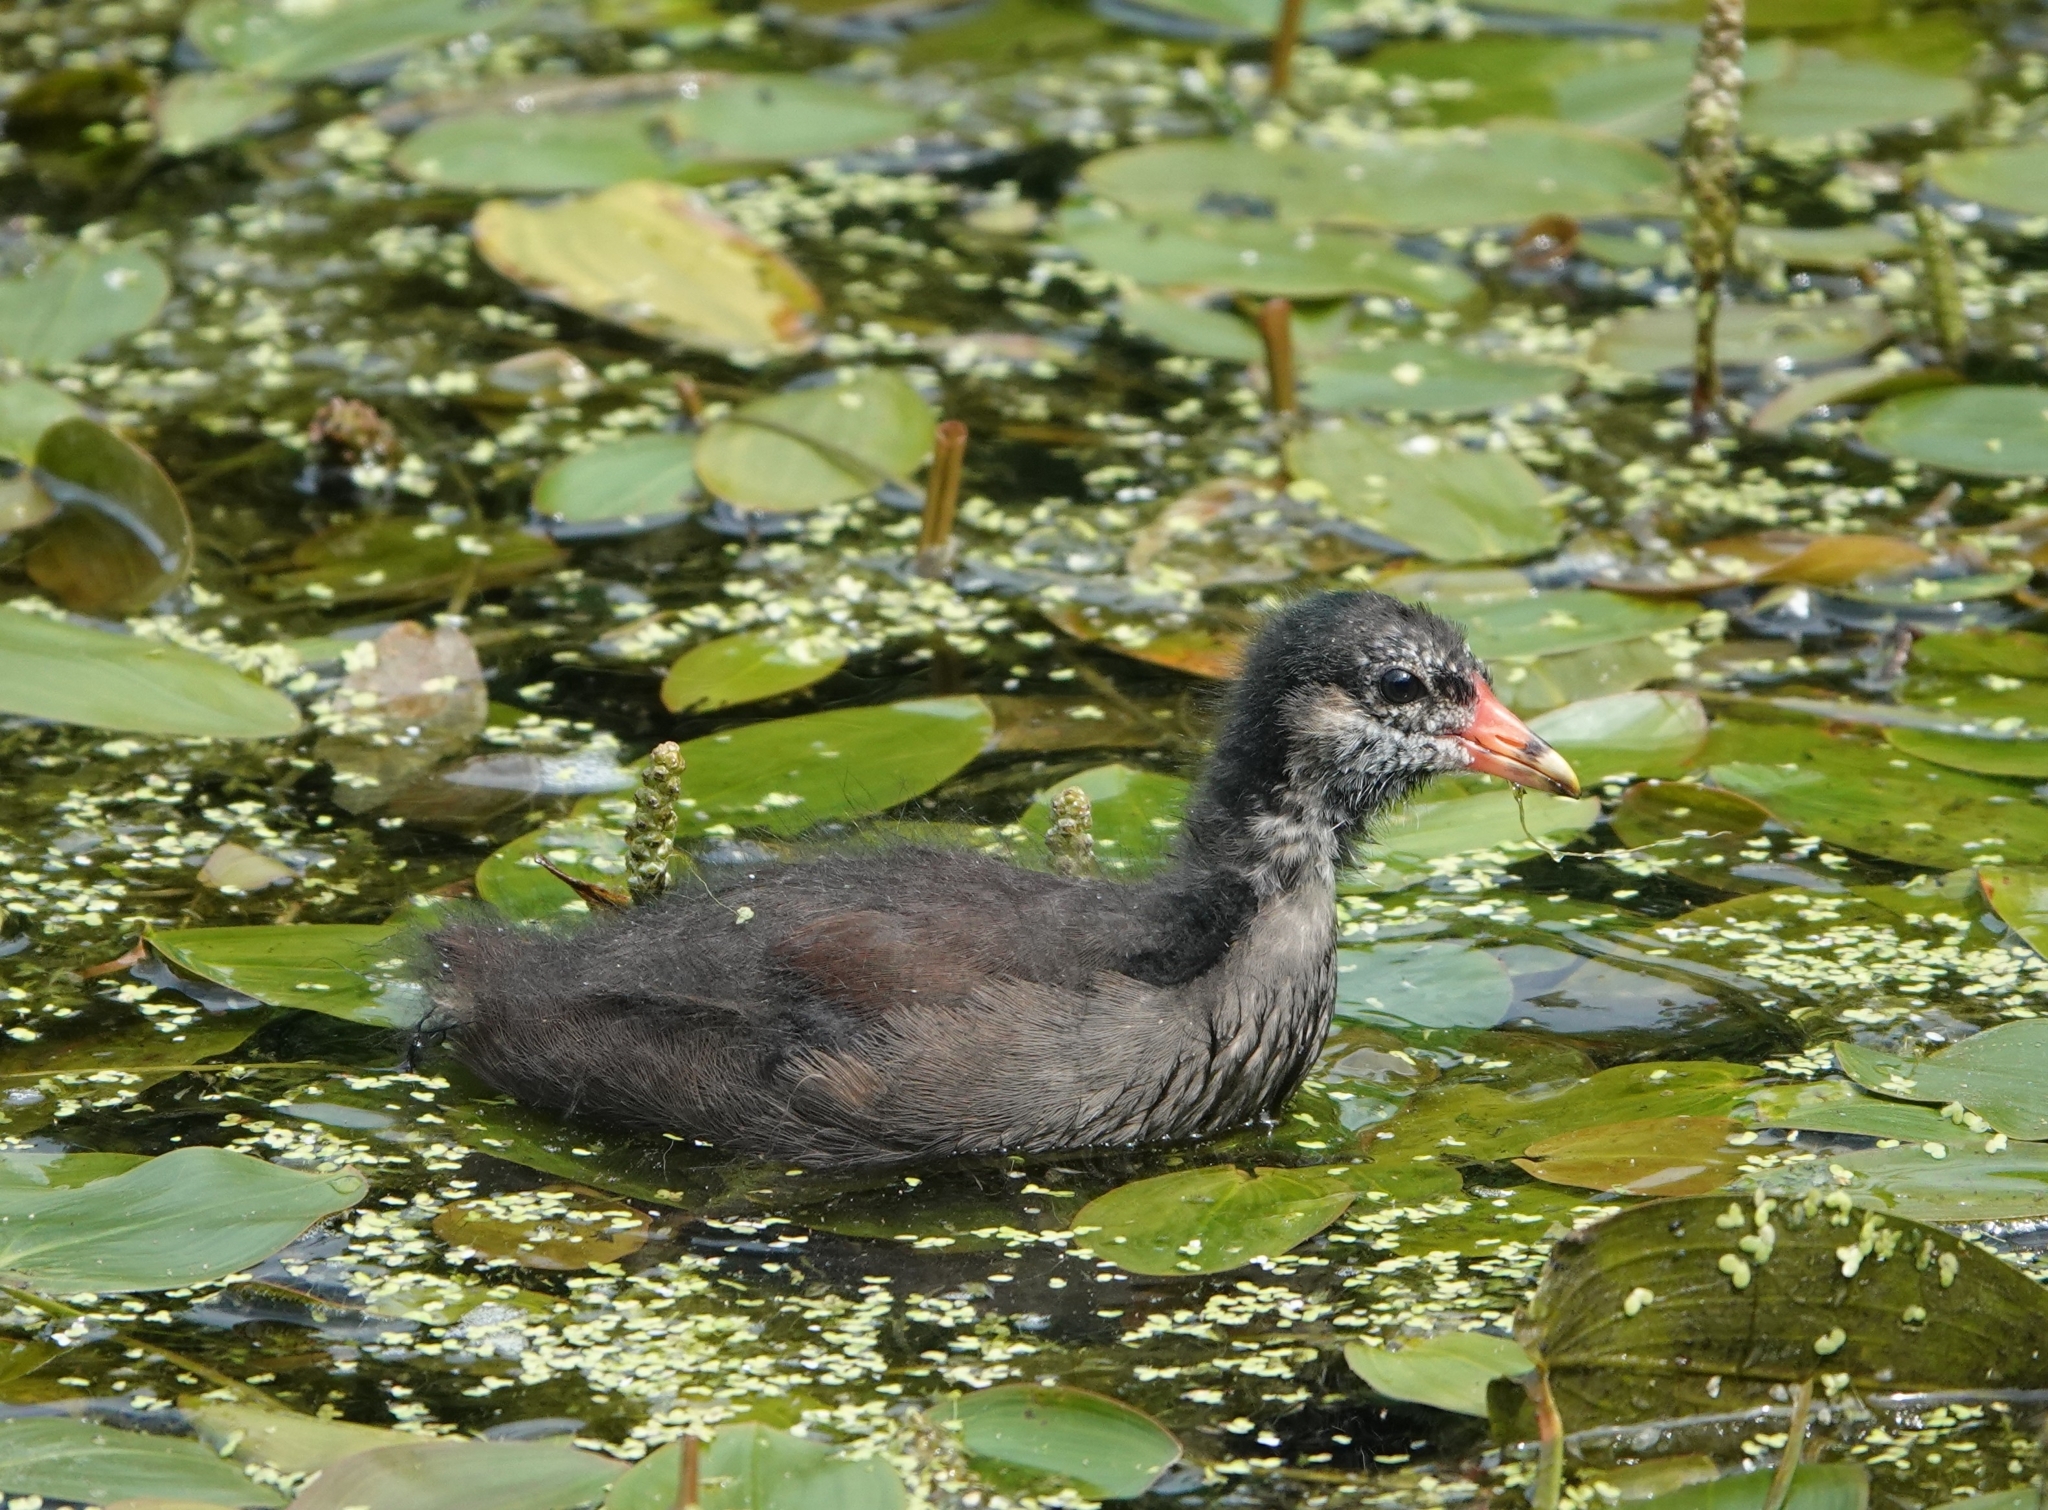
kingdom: Animalia
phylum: Chordata
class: Aves
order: Gruiformes
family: Rallidae
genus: Gallinula
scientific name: Gallinula chloropus
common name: Common moorhen
